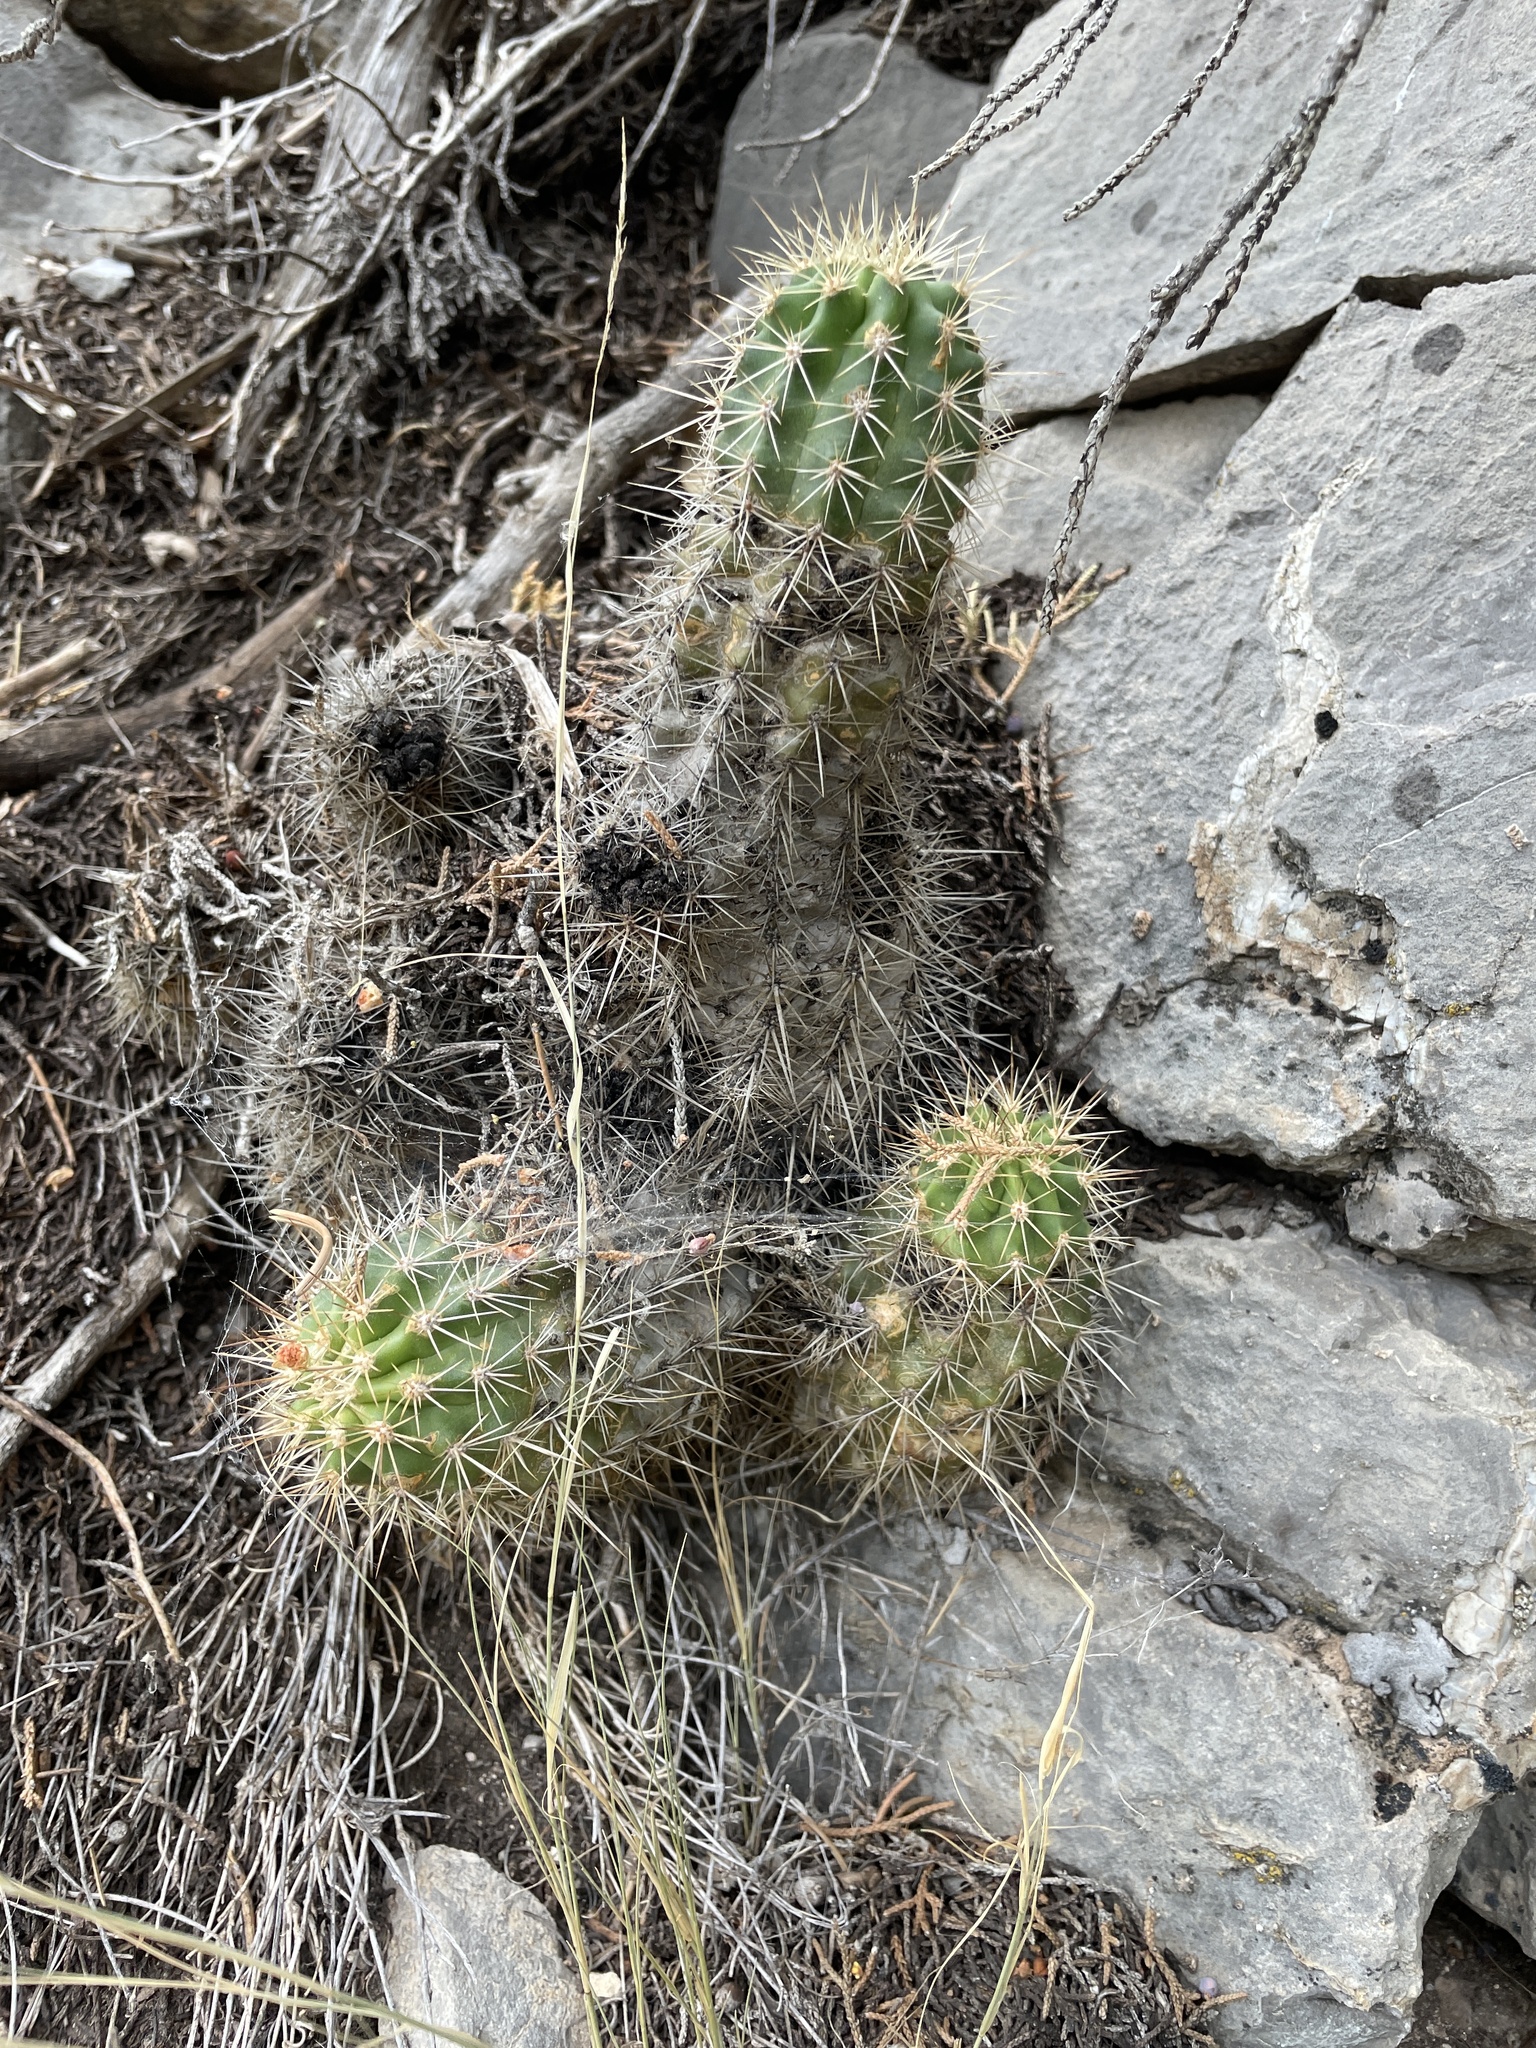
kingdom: Plantae
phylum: Tracheophyta
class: Magnoliopsida
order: Caryophyllales
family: Cactaceae
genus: Echinocereus
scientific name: Echinocereus coccineus
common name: Scarlet hedgehog cactus
